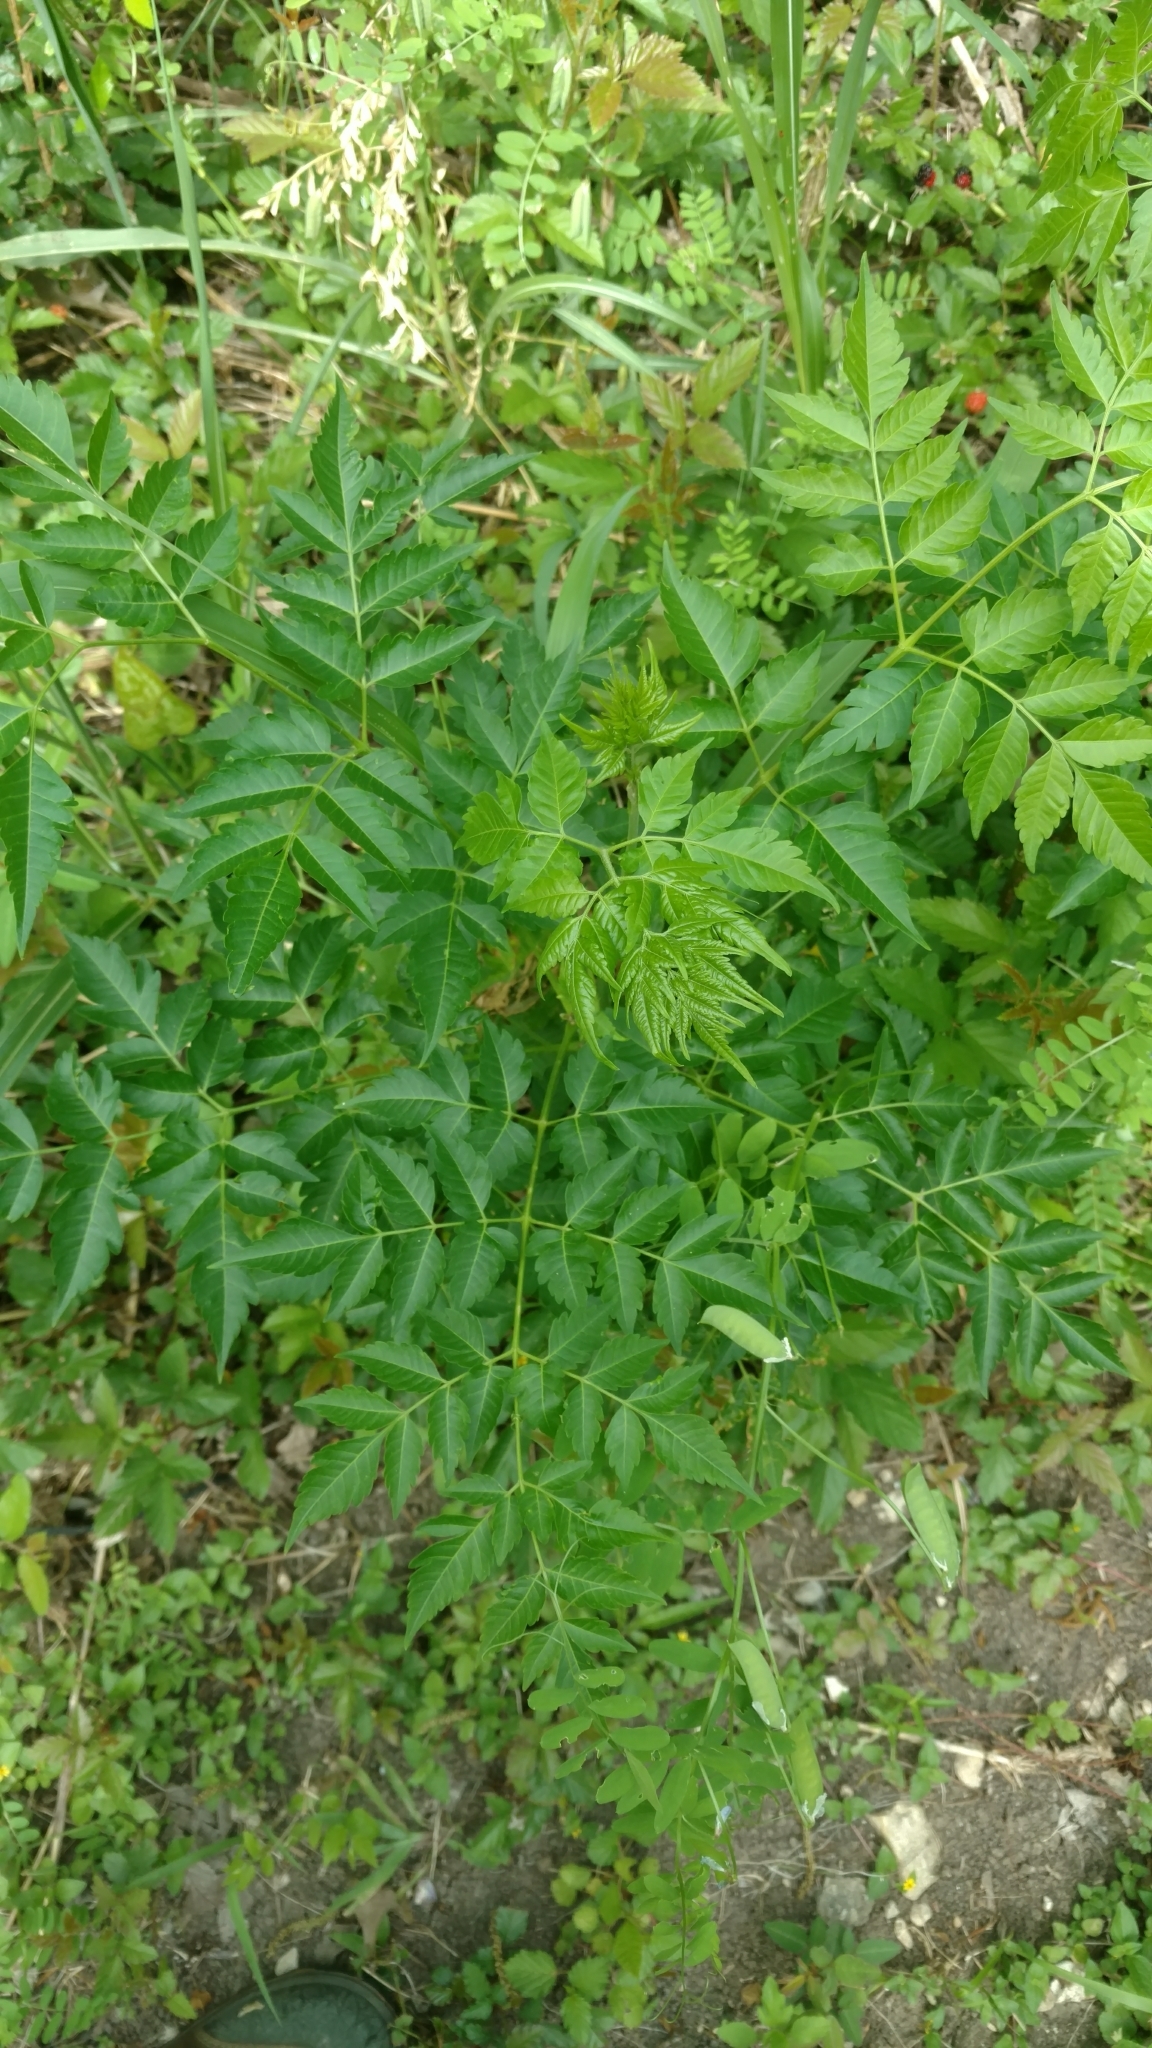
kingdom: Plantae
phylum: Tracheophyta
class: Magnoliopsida
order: Sapindales
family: Meliaceae
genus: Melia
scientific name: Melia azedarach
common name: Chinaberrytree
